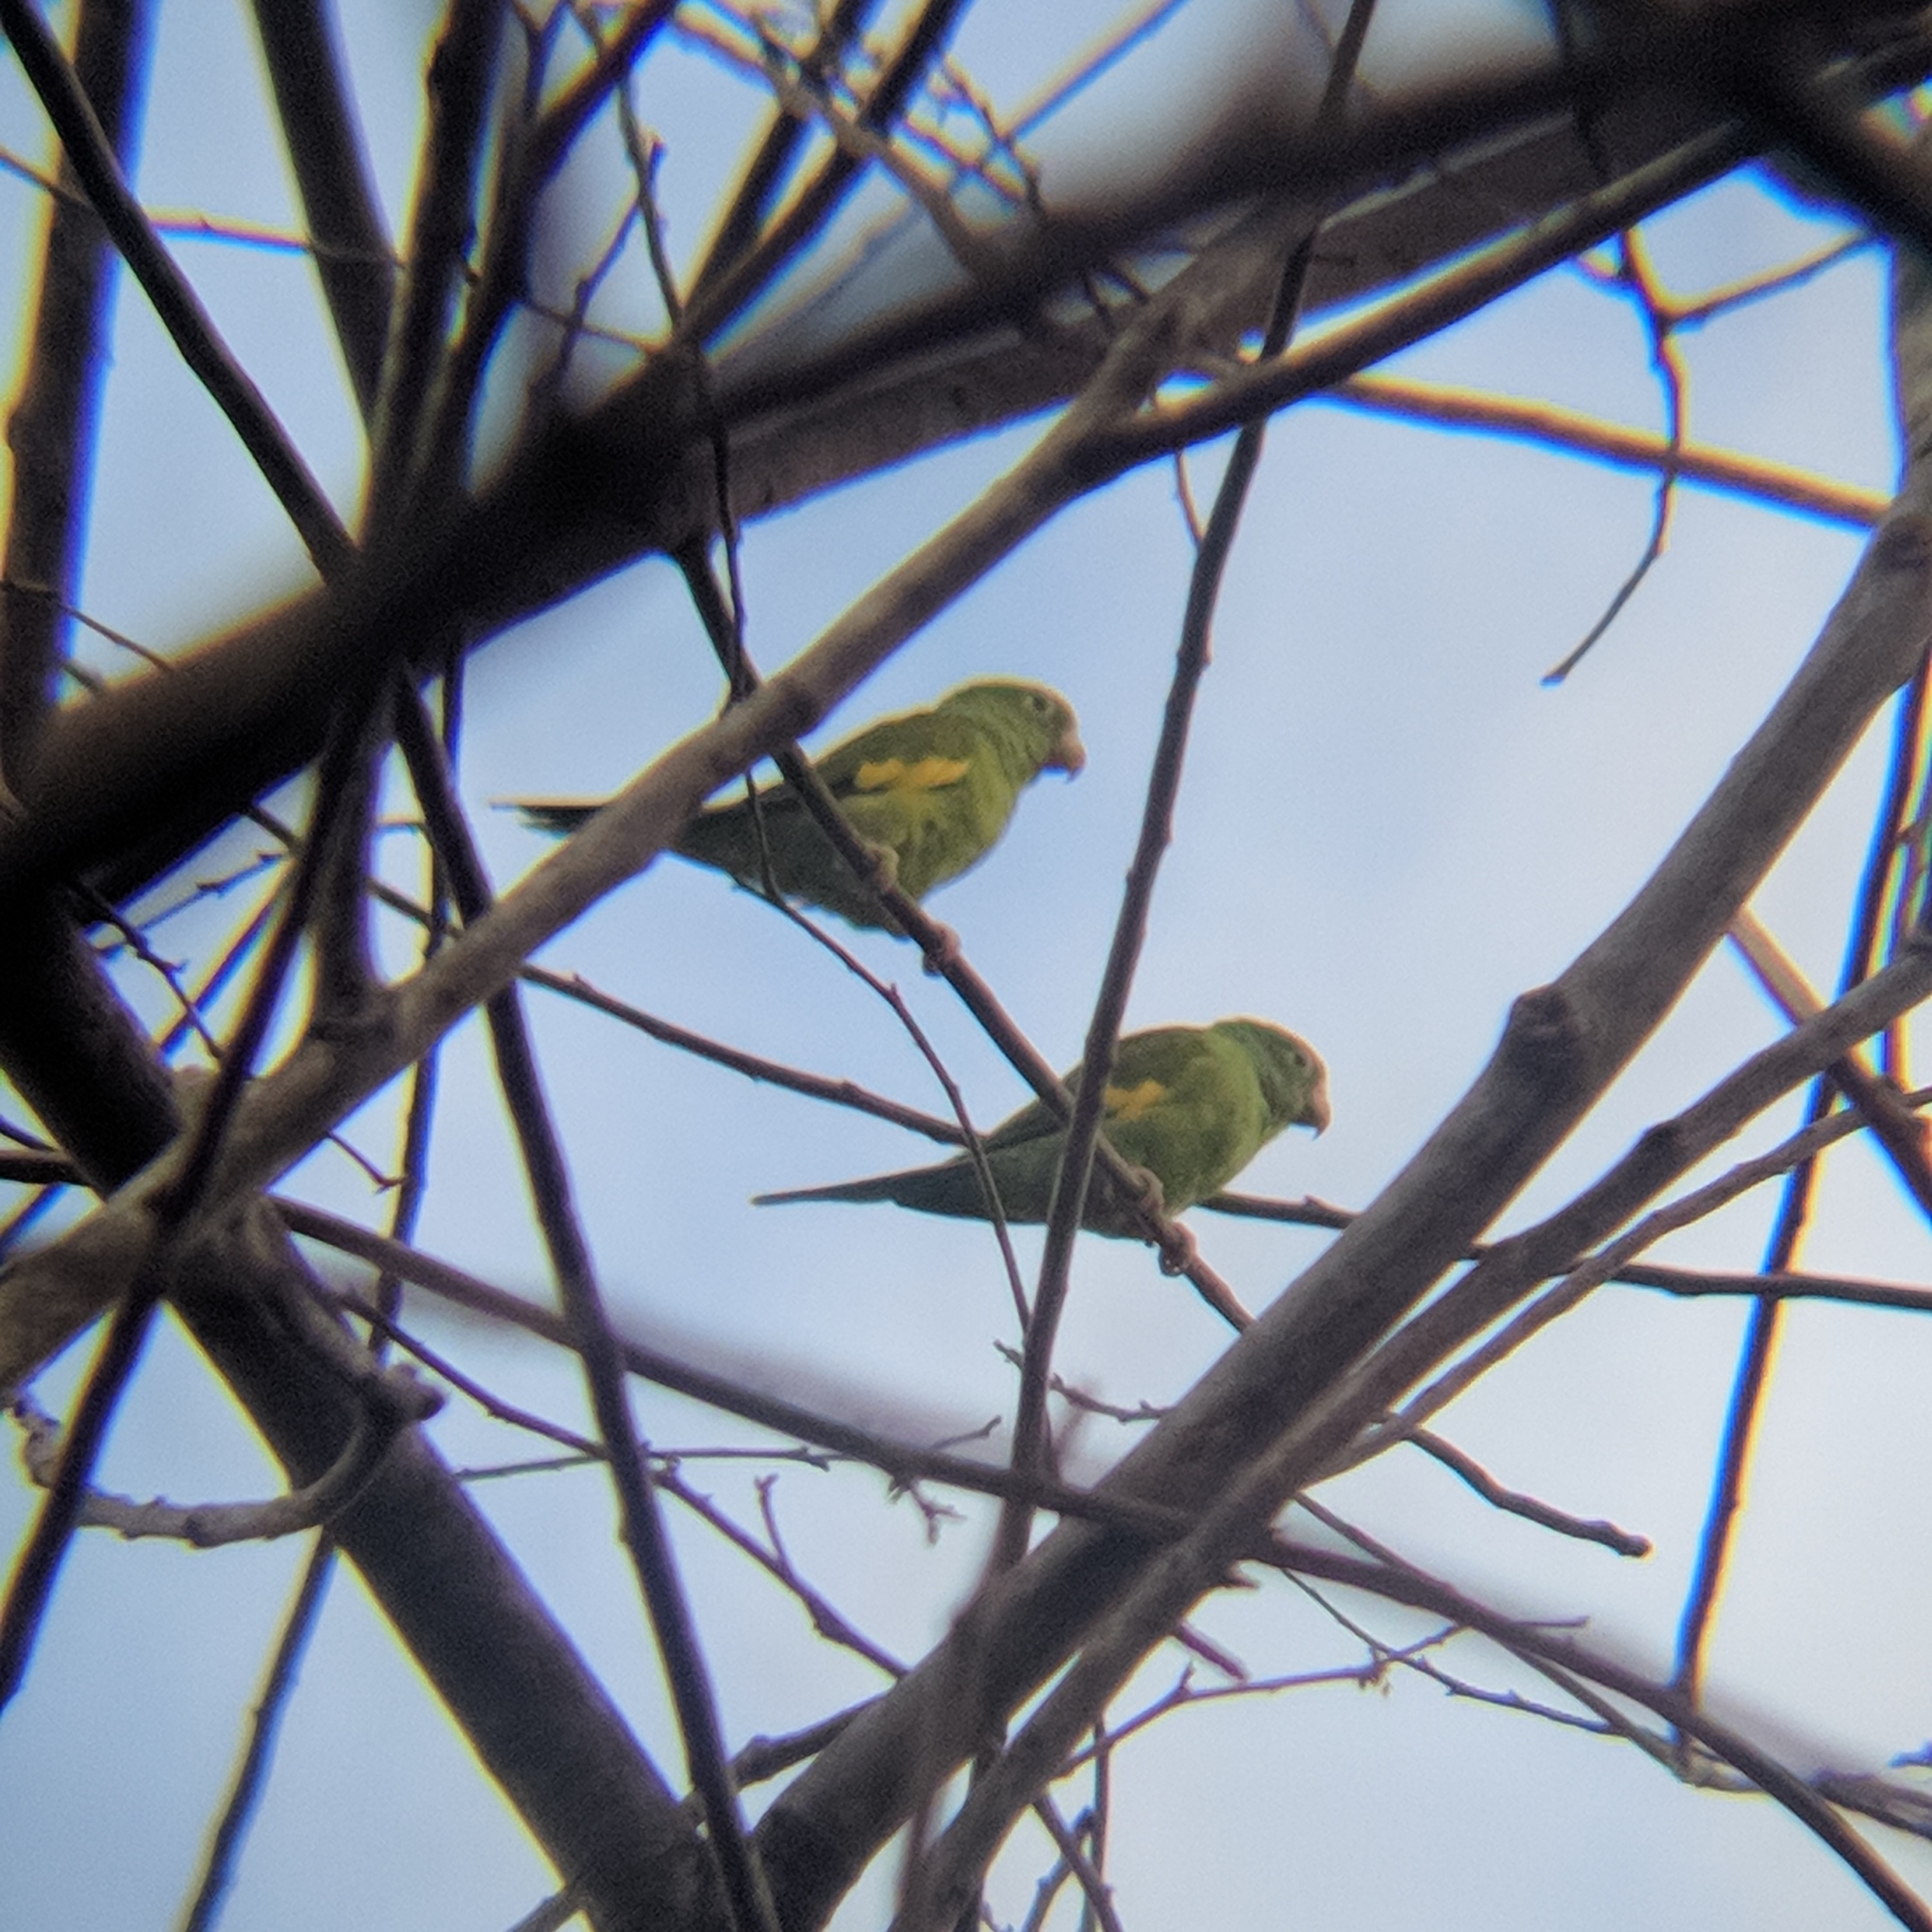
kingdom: Animalia
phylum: Chordata
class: Aves
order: Psittaciformes
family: Psittacidae
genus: Brotogeris
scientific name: Brotogeris chiriri
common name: Yellow-chevroned parakeet
